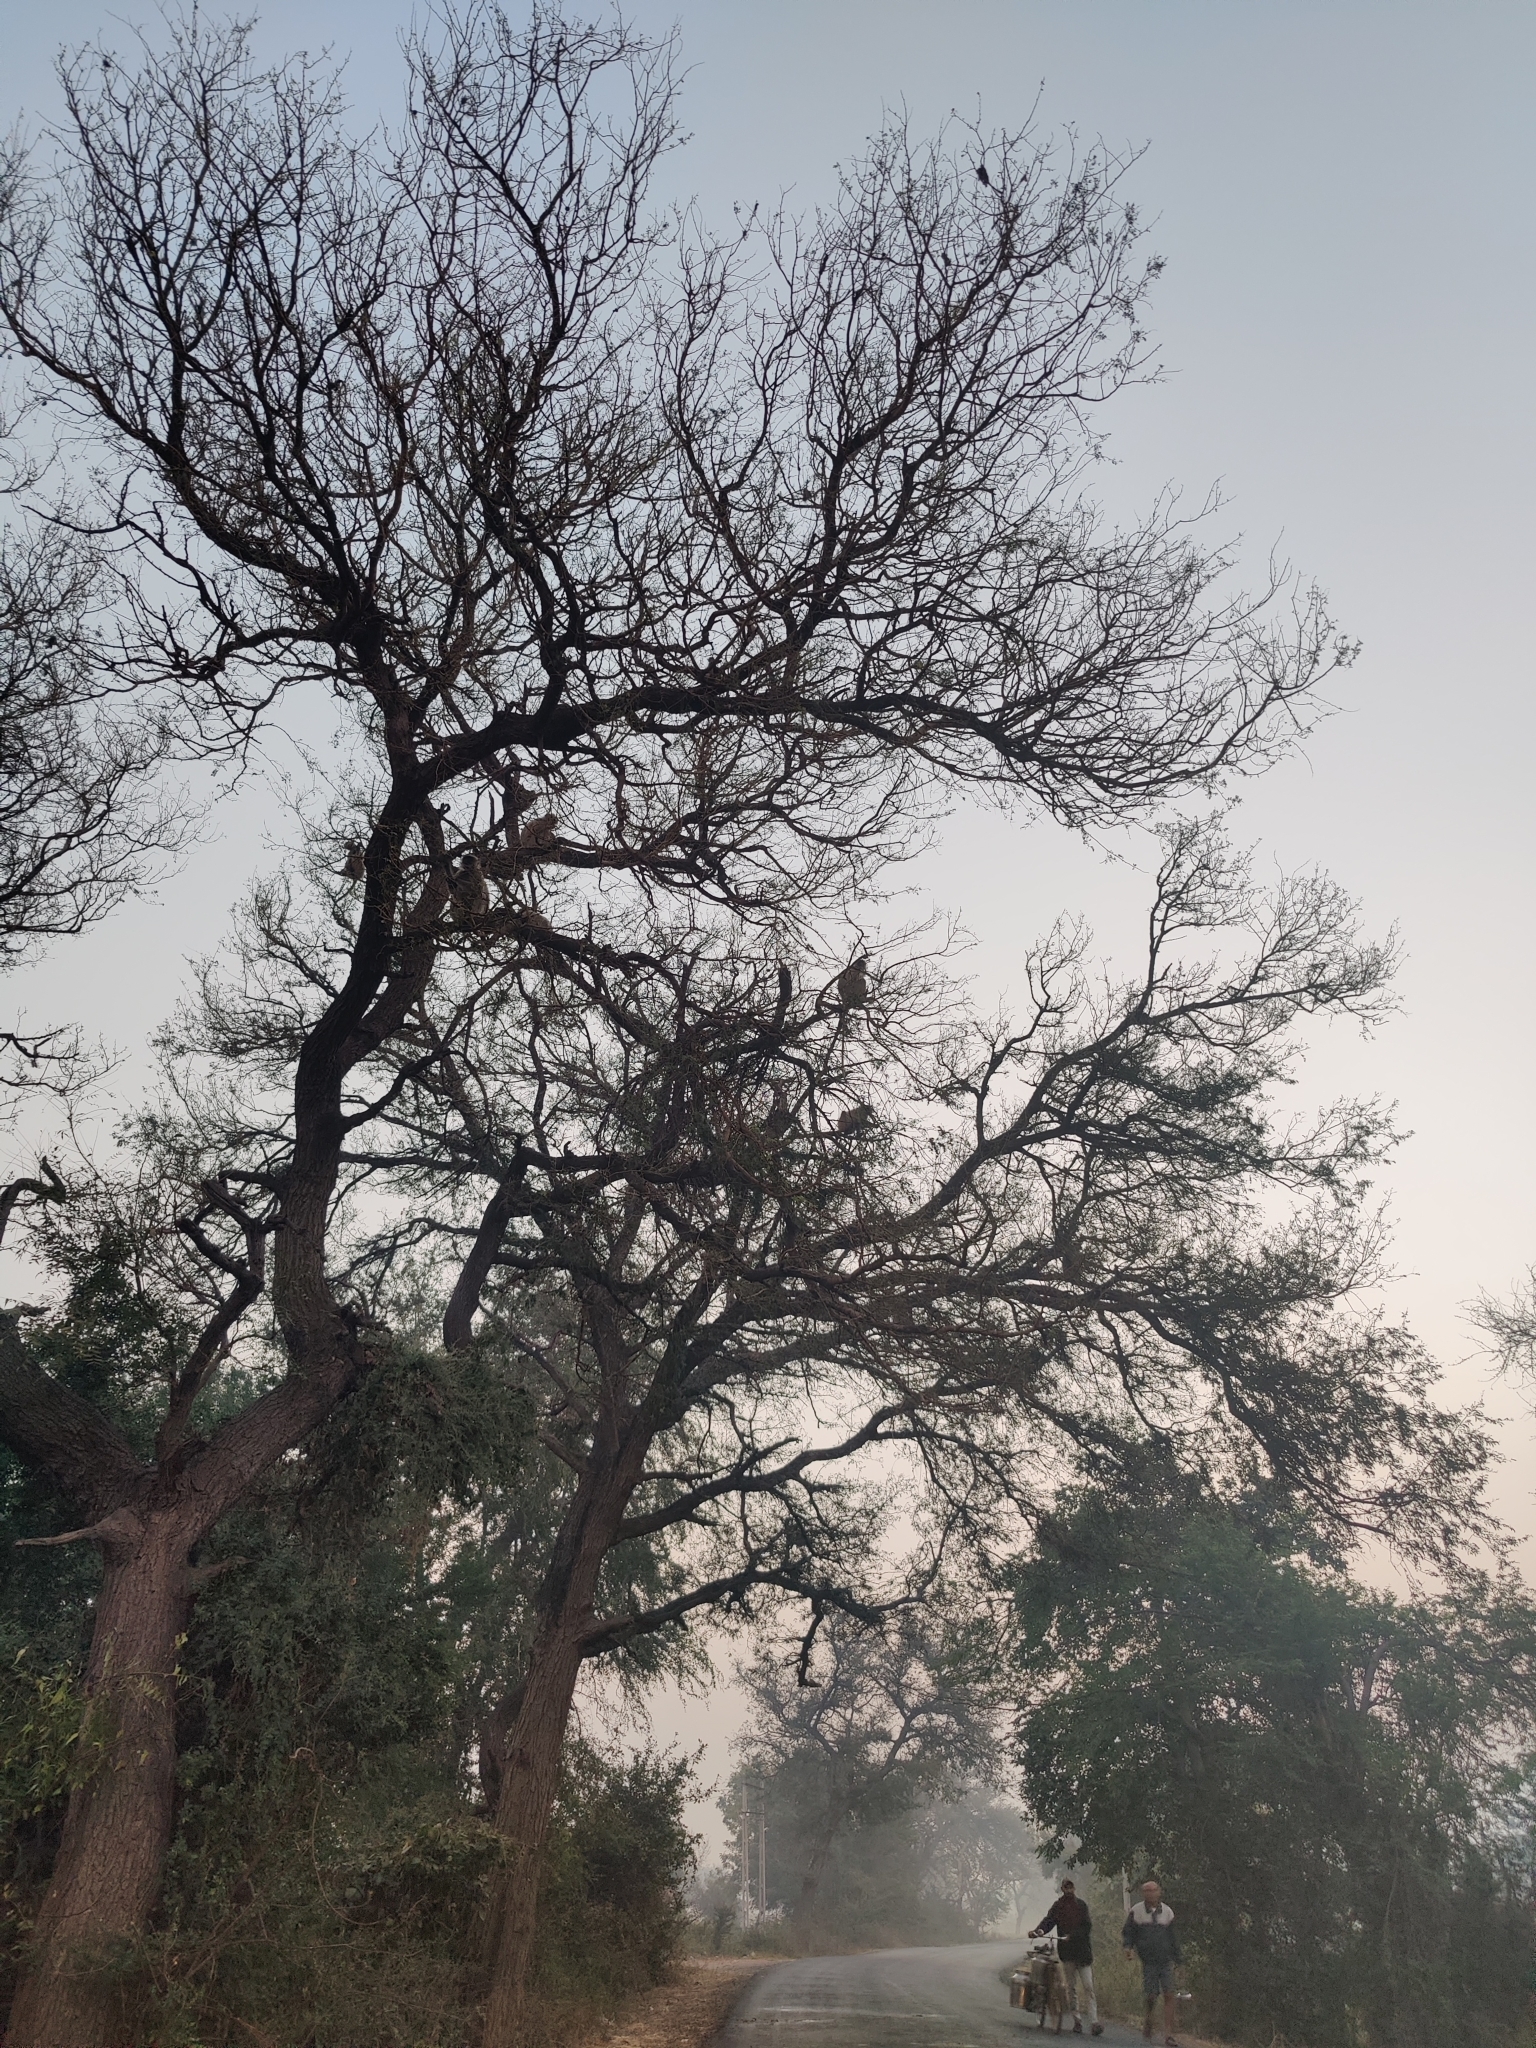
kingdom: Animalia
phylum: Chordata
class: Mammalia
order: Primates
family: Cercopithecidae
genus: Semnopithecus
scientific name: Semnopithecus entellus
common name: Northern plains gray langur
